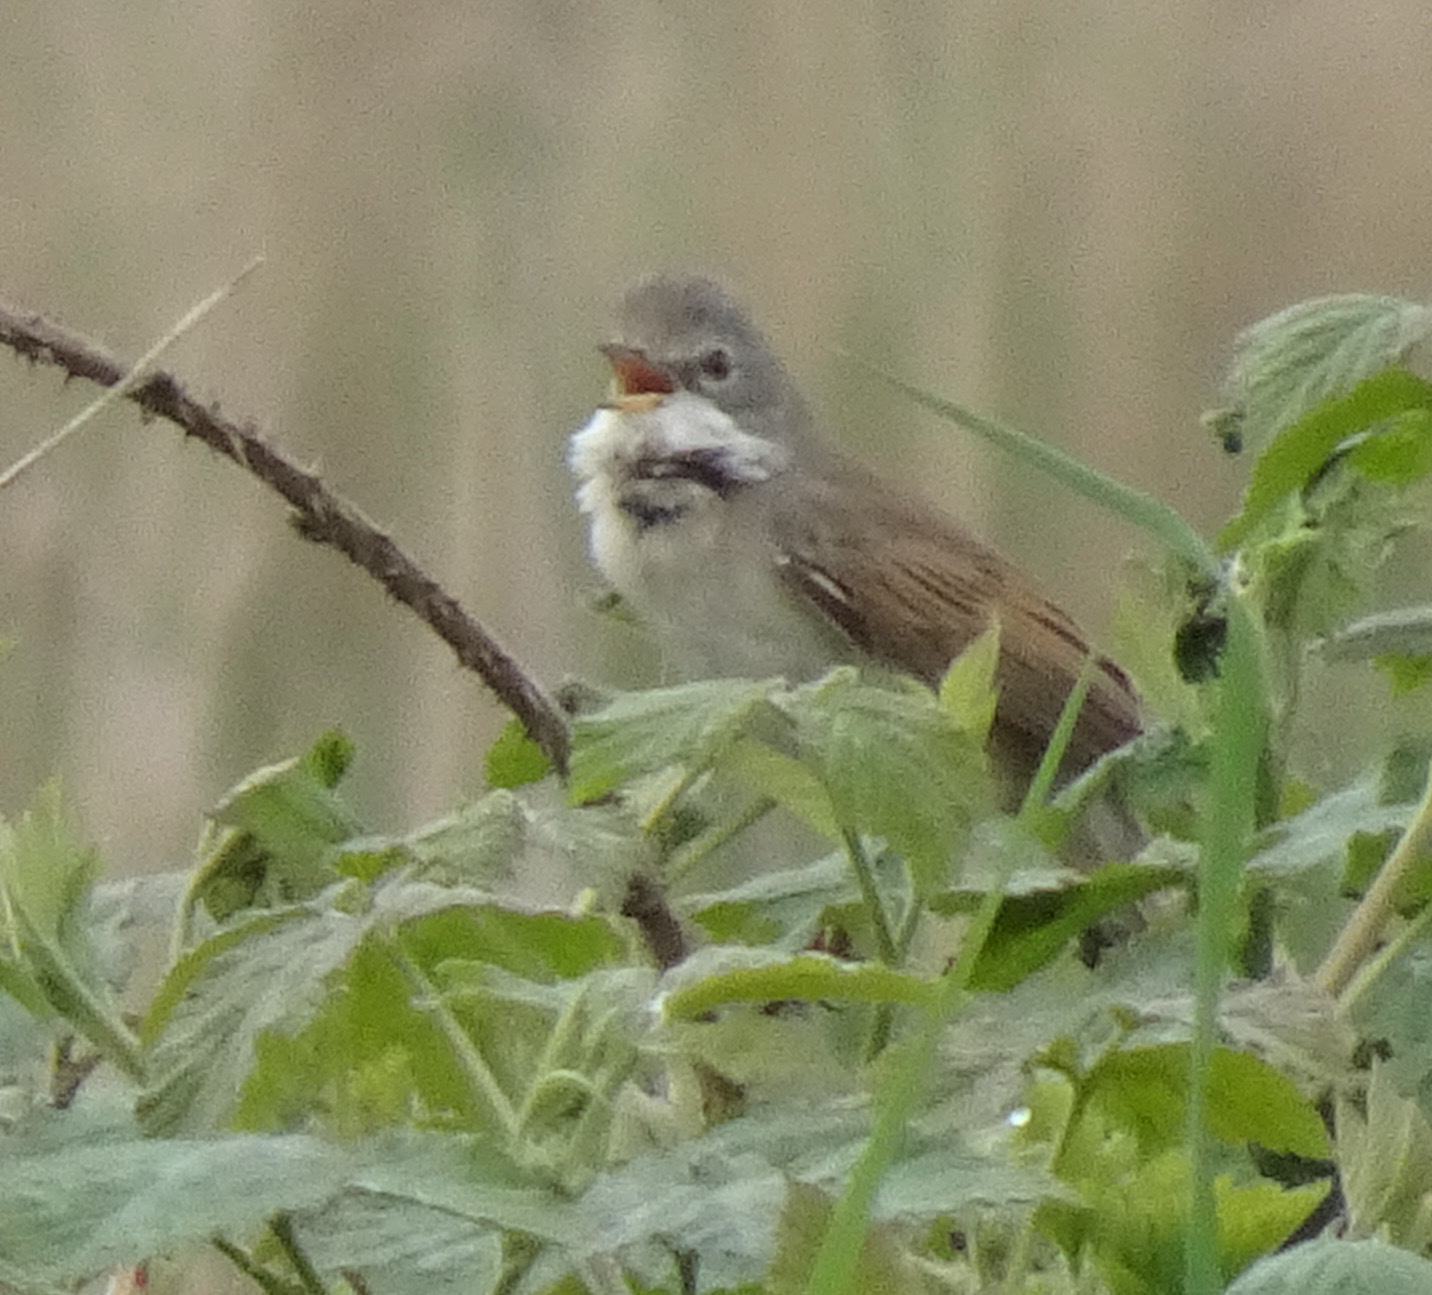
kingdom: Animalia
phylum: Chordata
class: Aves
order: Passeriformes
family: Sylviidae
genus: Sylvia
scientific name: Sylvia communis
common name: Common whitethroat
